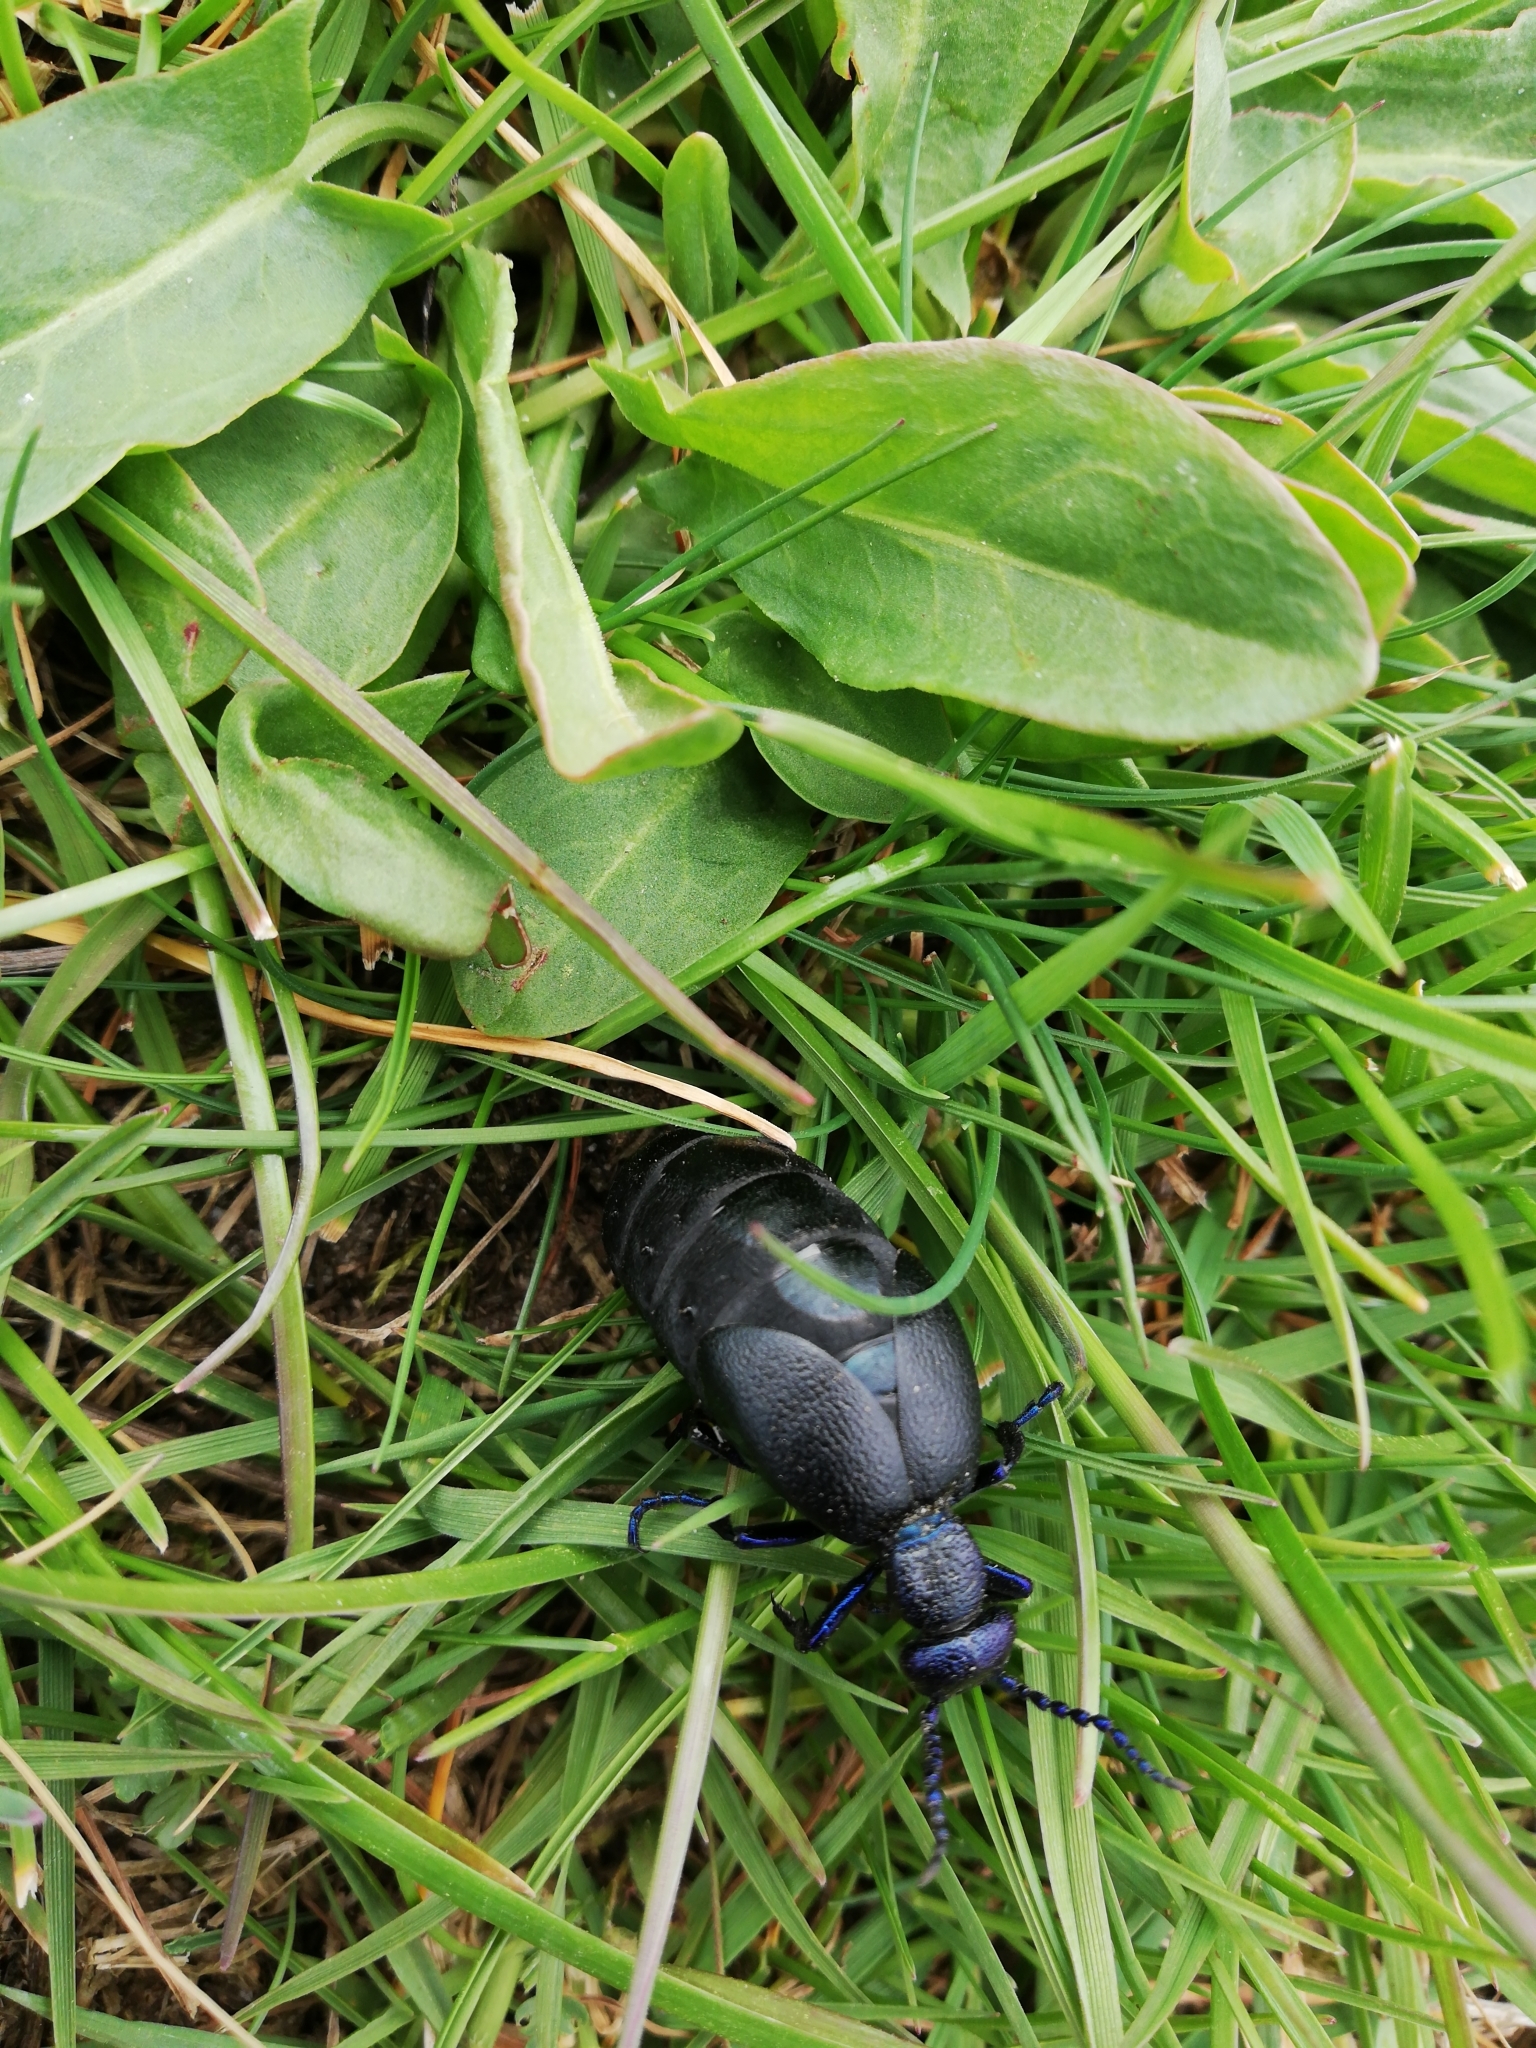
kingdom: Animalia
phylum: Arthropoda
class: Insecta
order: Coleoptera
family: Meloidae
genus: Meloe
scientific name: Meloe proscarabaeus
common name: Black oil-beetle
